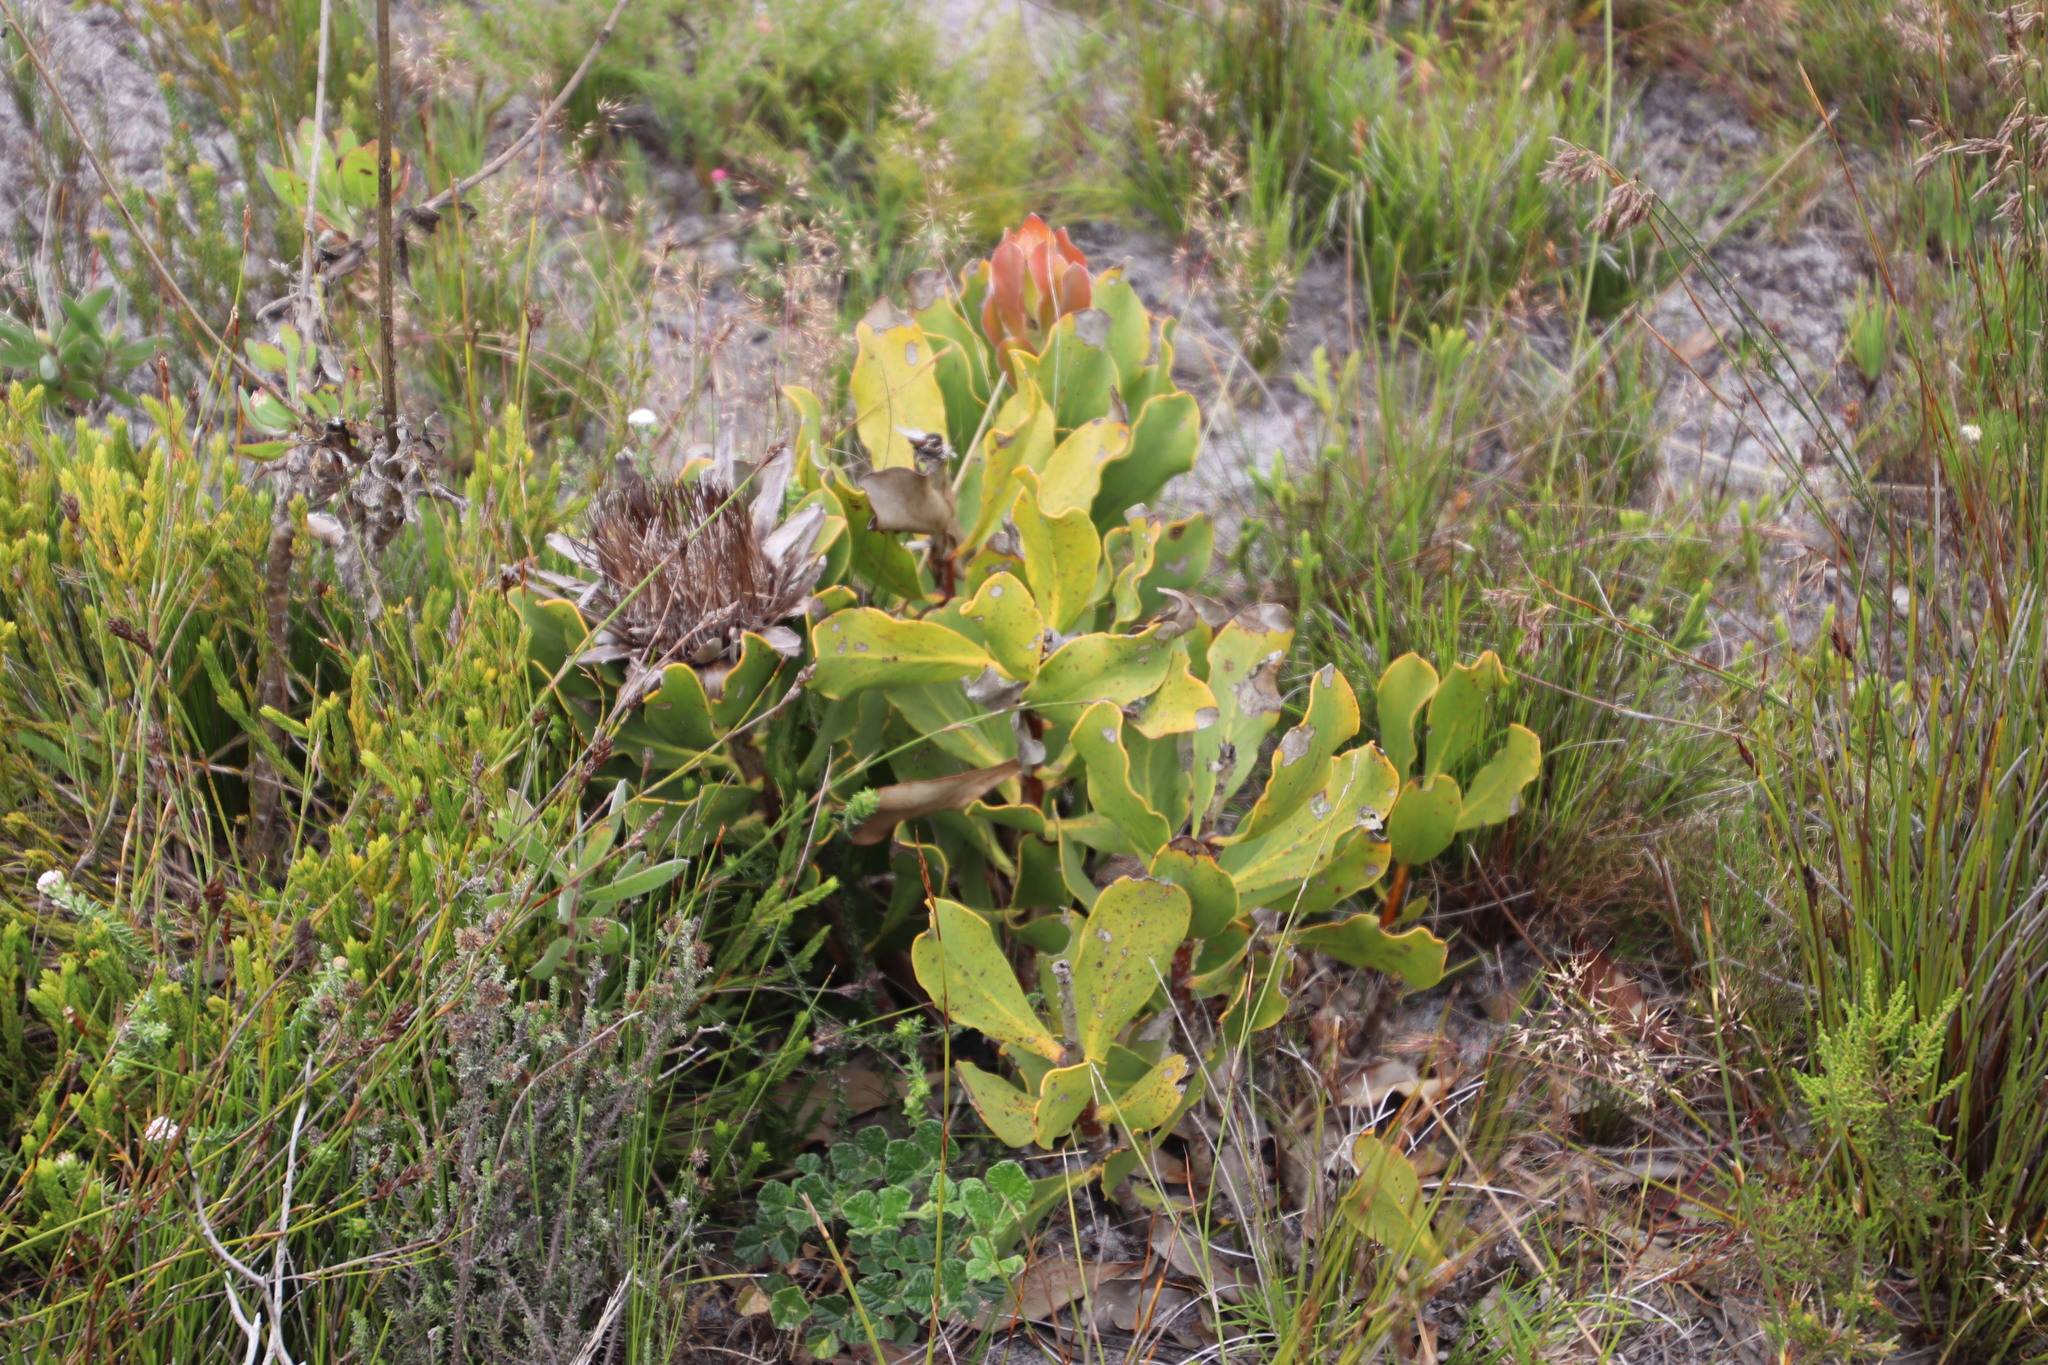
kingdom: Plantae
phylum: Tracheophyta
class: Magnoliopsida
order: Proteales
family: Proteaceae
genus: Protea
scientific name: Protea speciosa
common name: Brown-beard sugarbush
